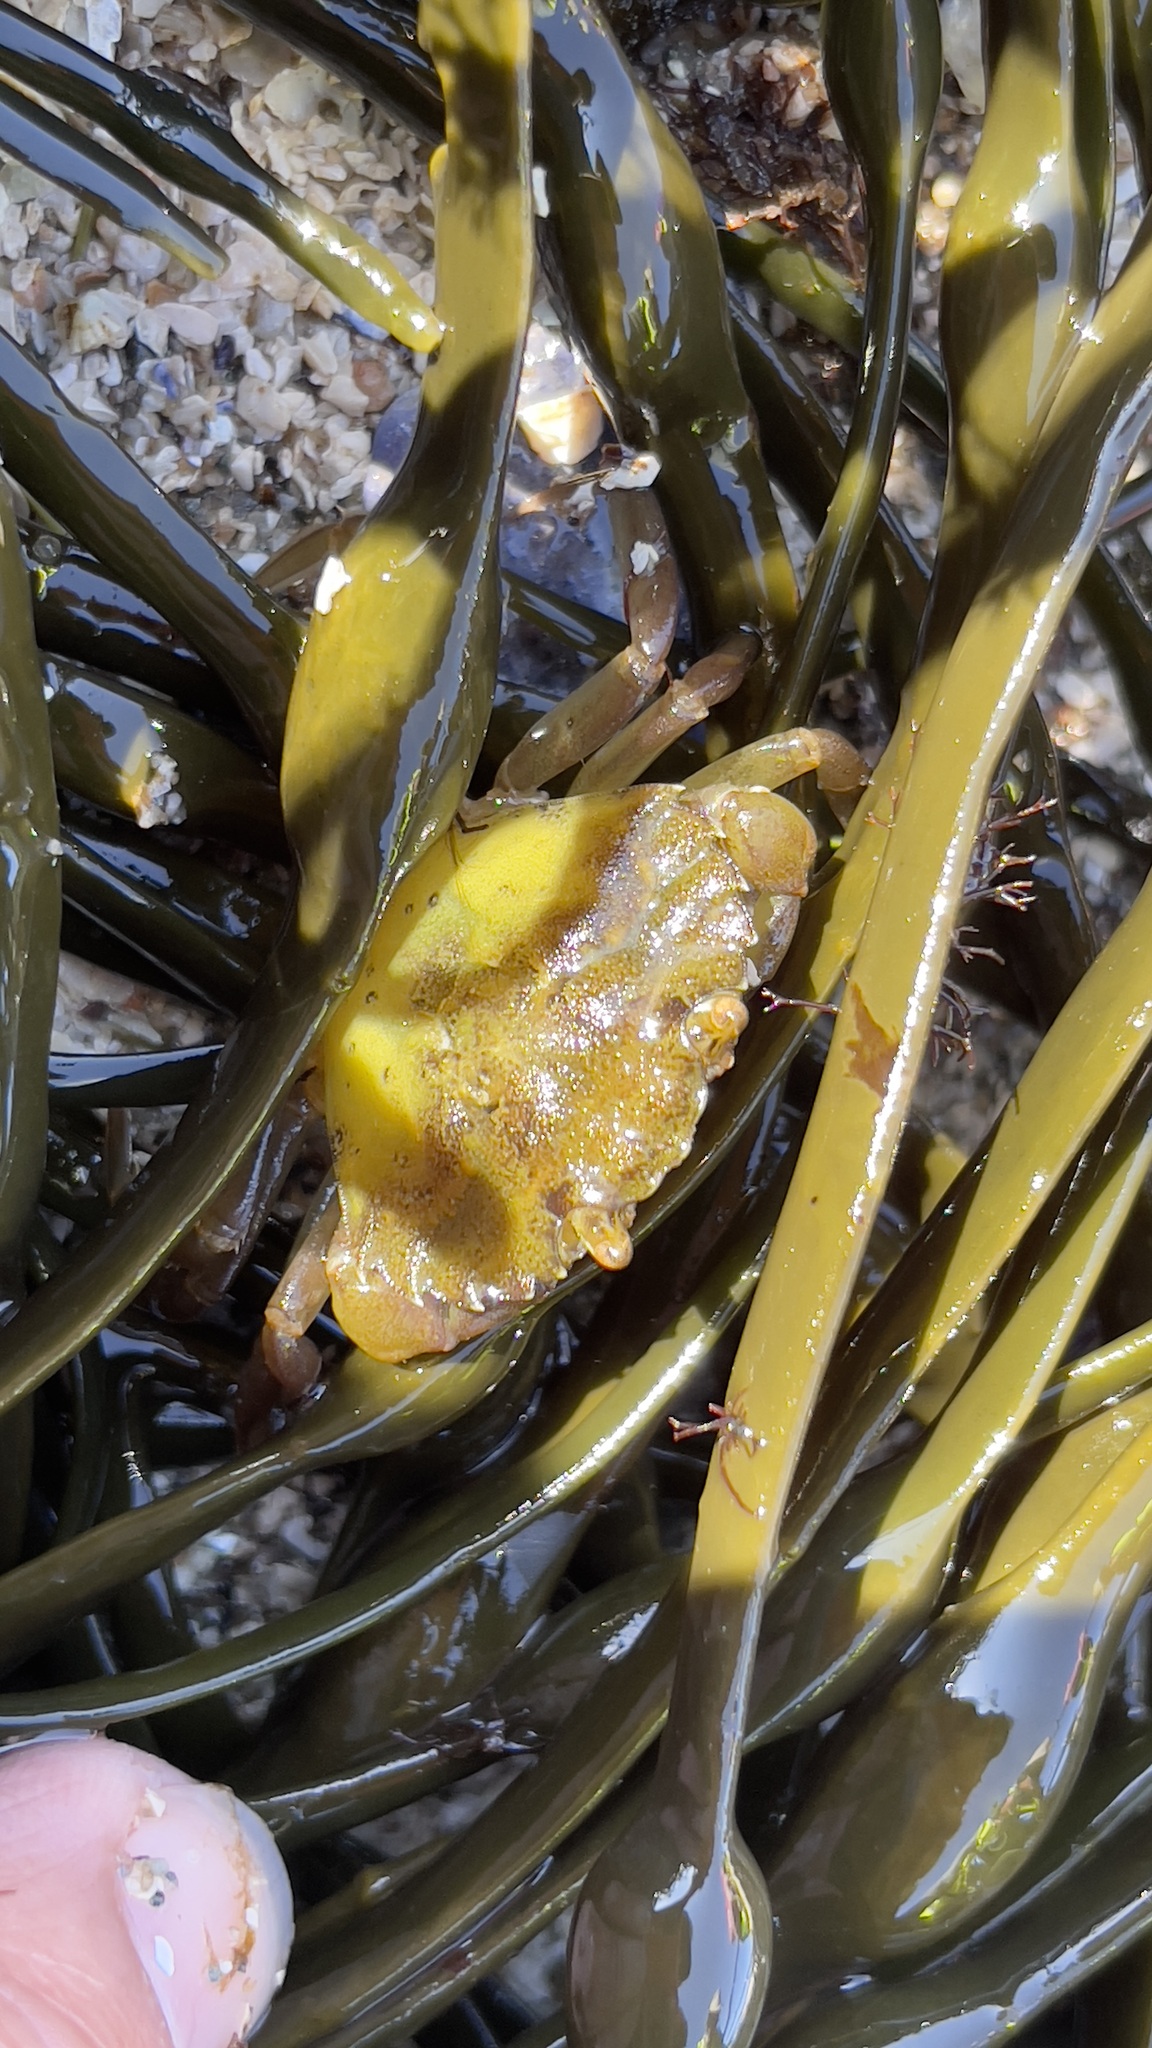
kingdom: Animalia
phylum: Arthropoda
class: Malacostraca
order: Decapoda
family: Carcinidae
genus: Carcinus
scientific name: Carcinus maenas
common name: European green crab
